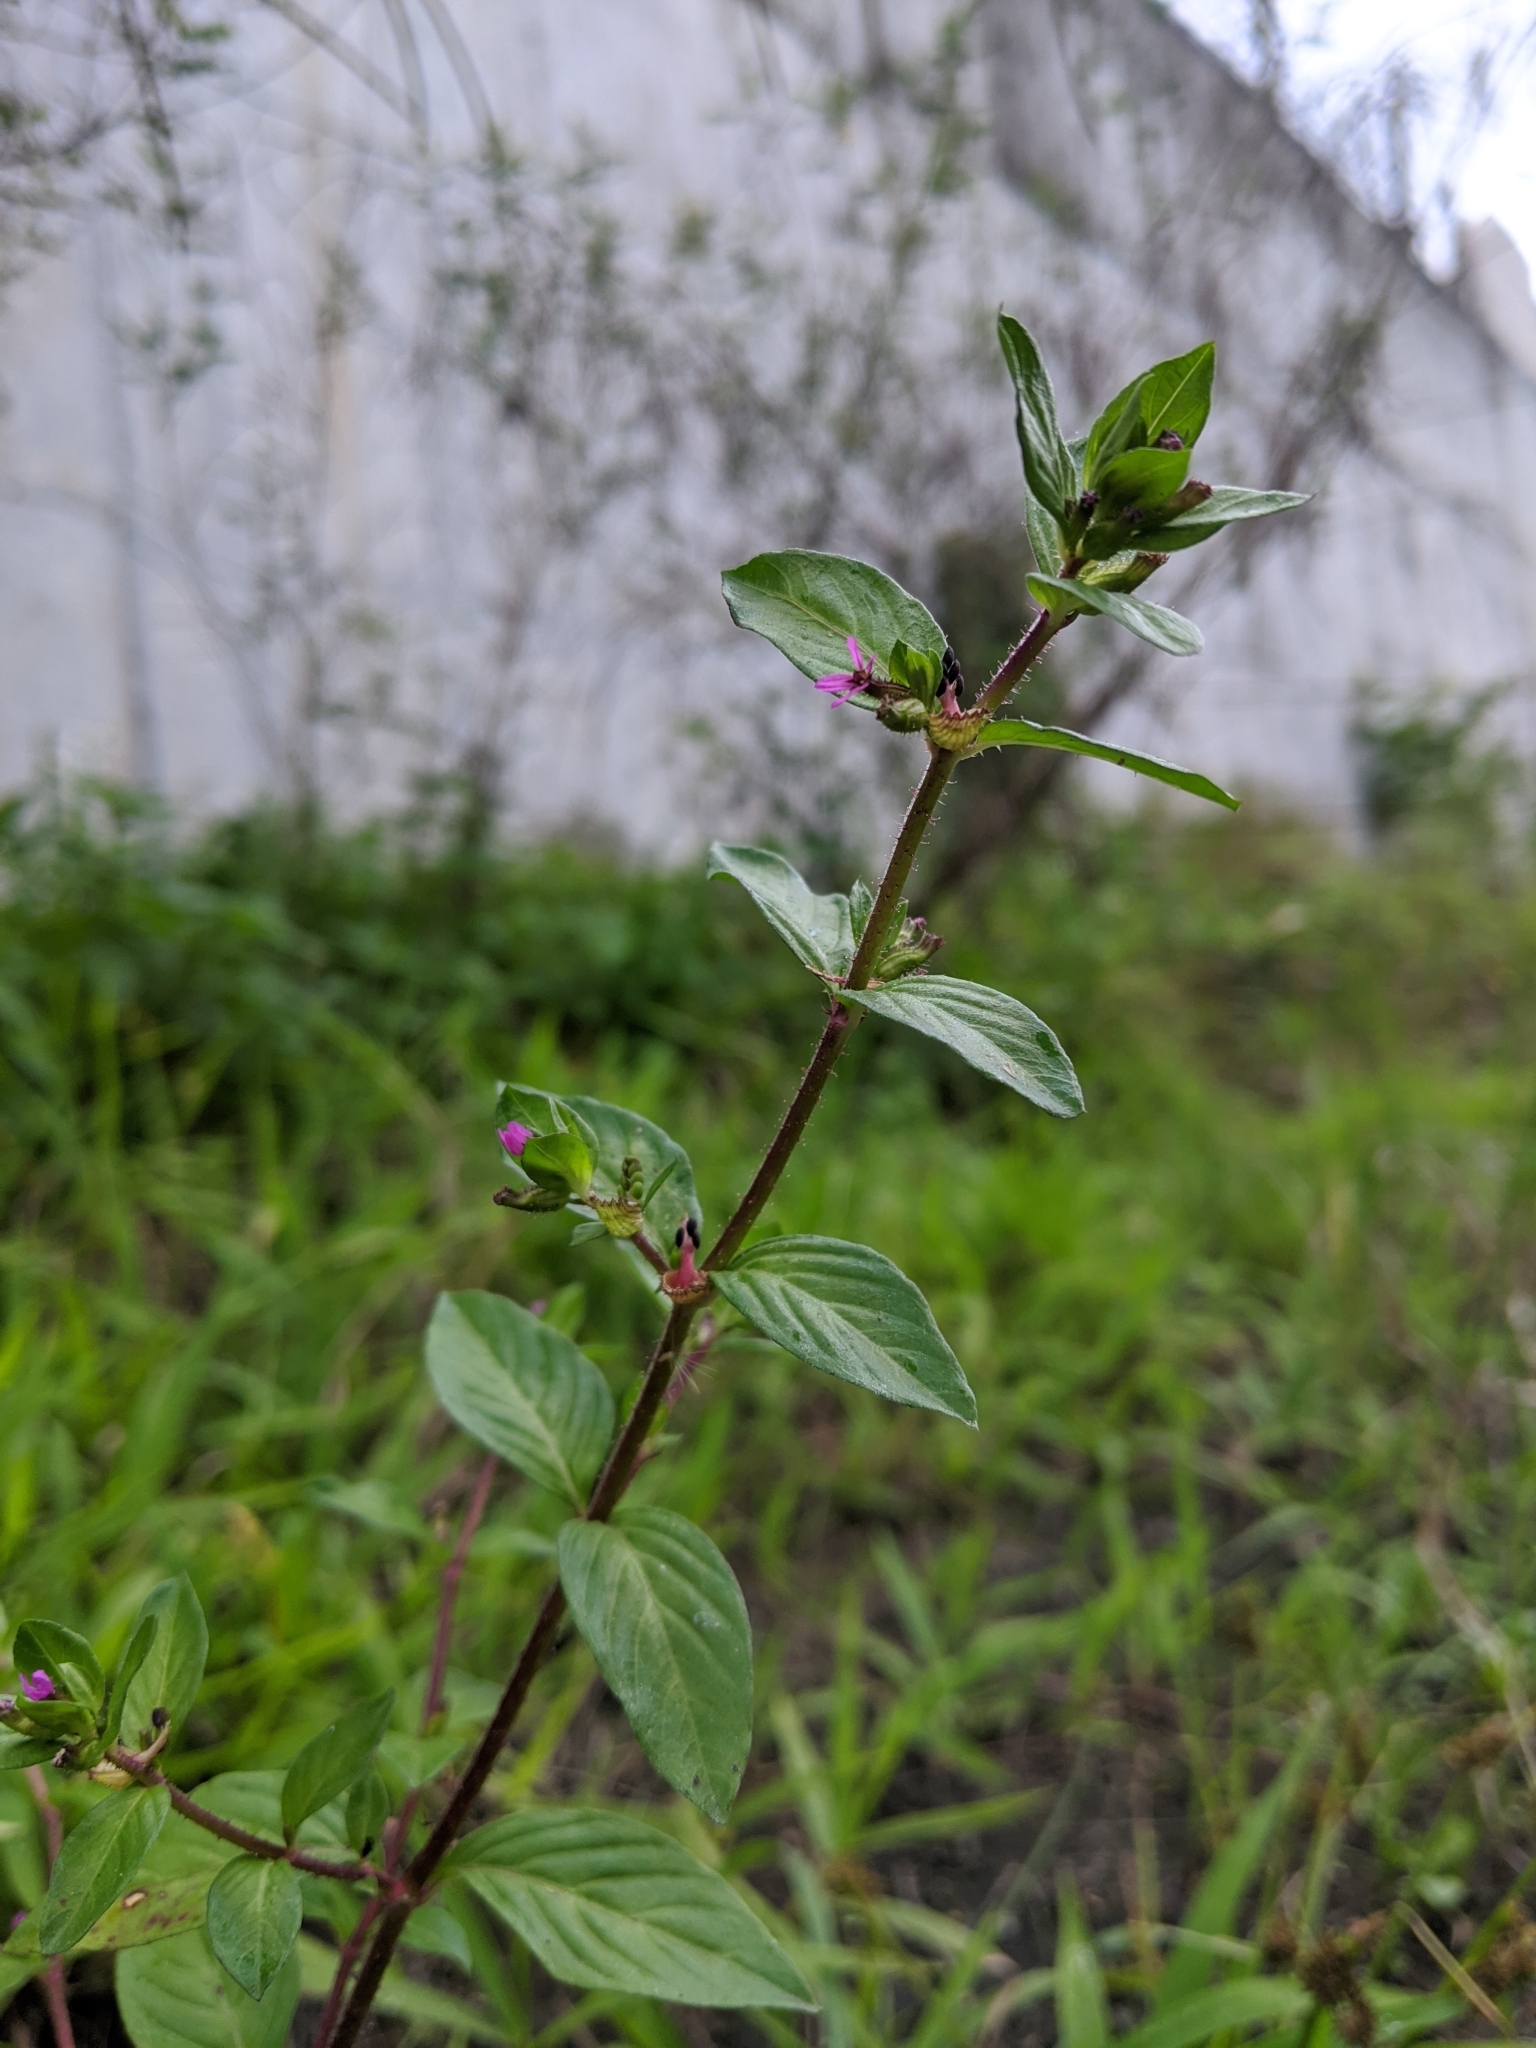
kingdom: Plantae
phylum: Tracheophyta
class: Magnoliopsida
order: Myrtales
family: Lythraceae
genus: Cuphea
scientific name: Cuphea carthagenensis
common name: Colombian waxweed
